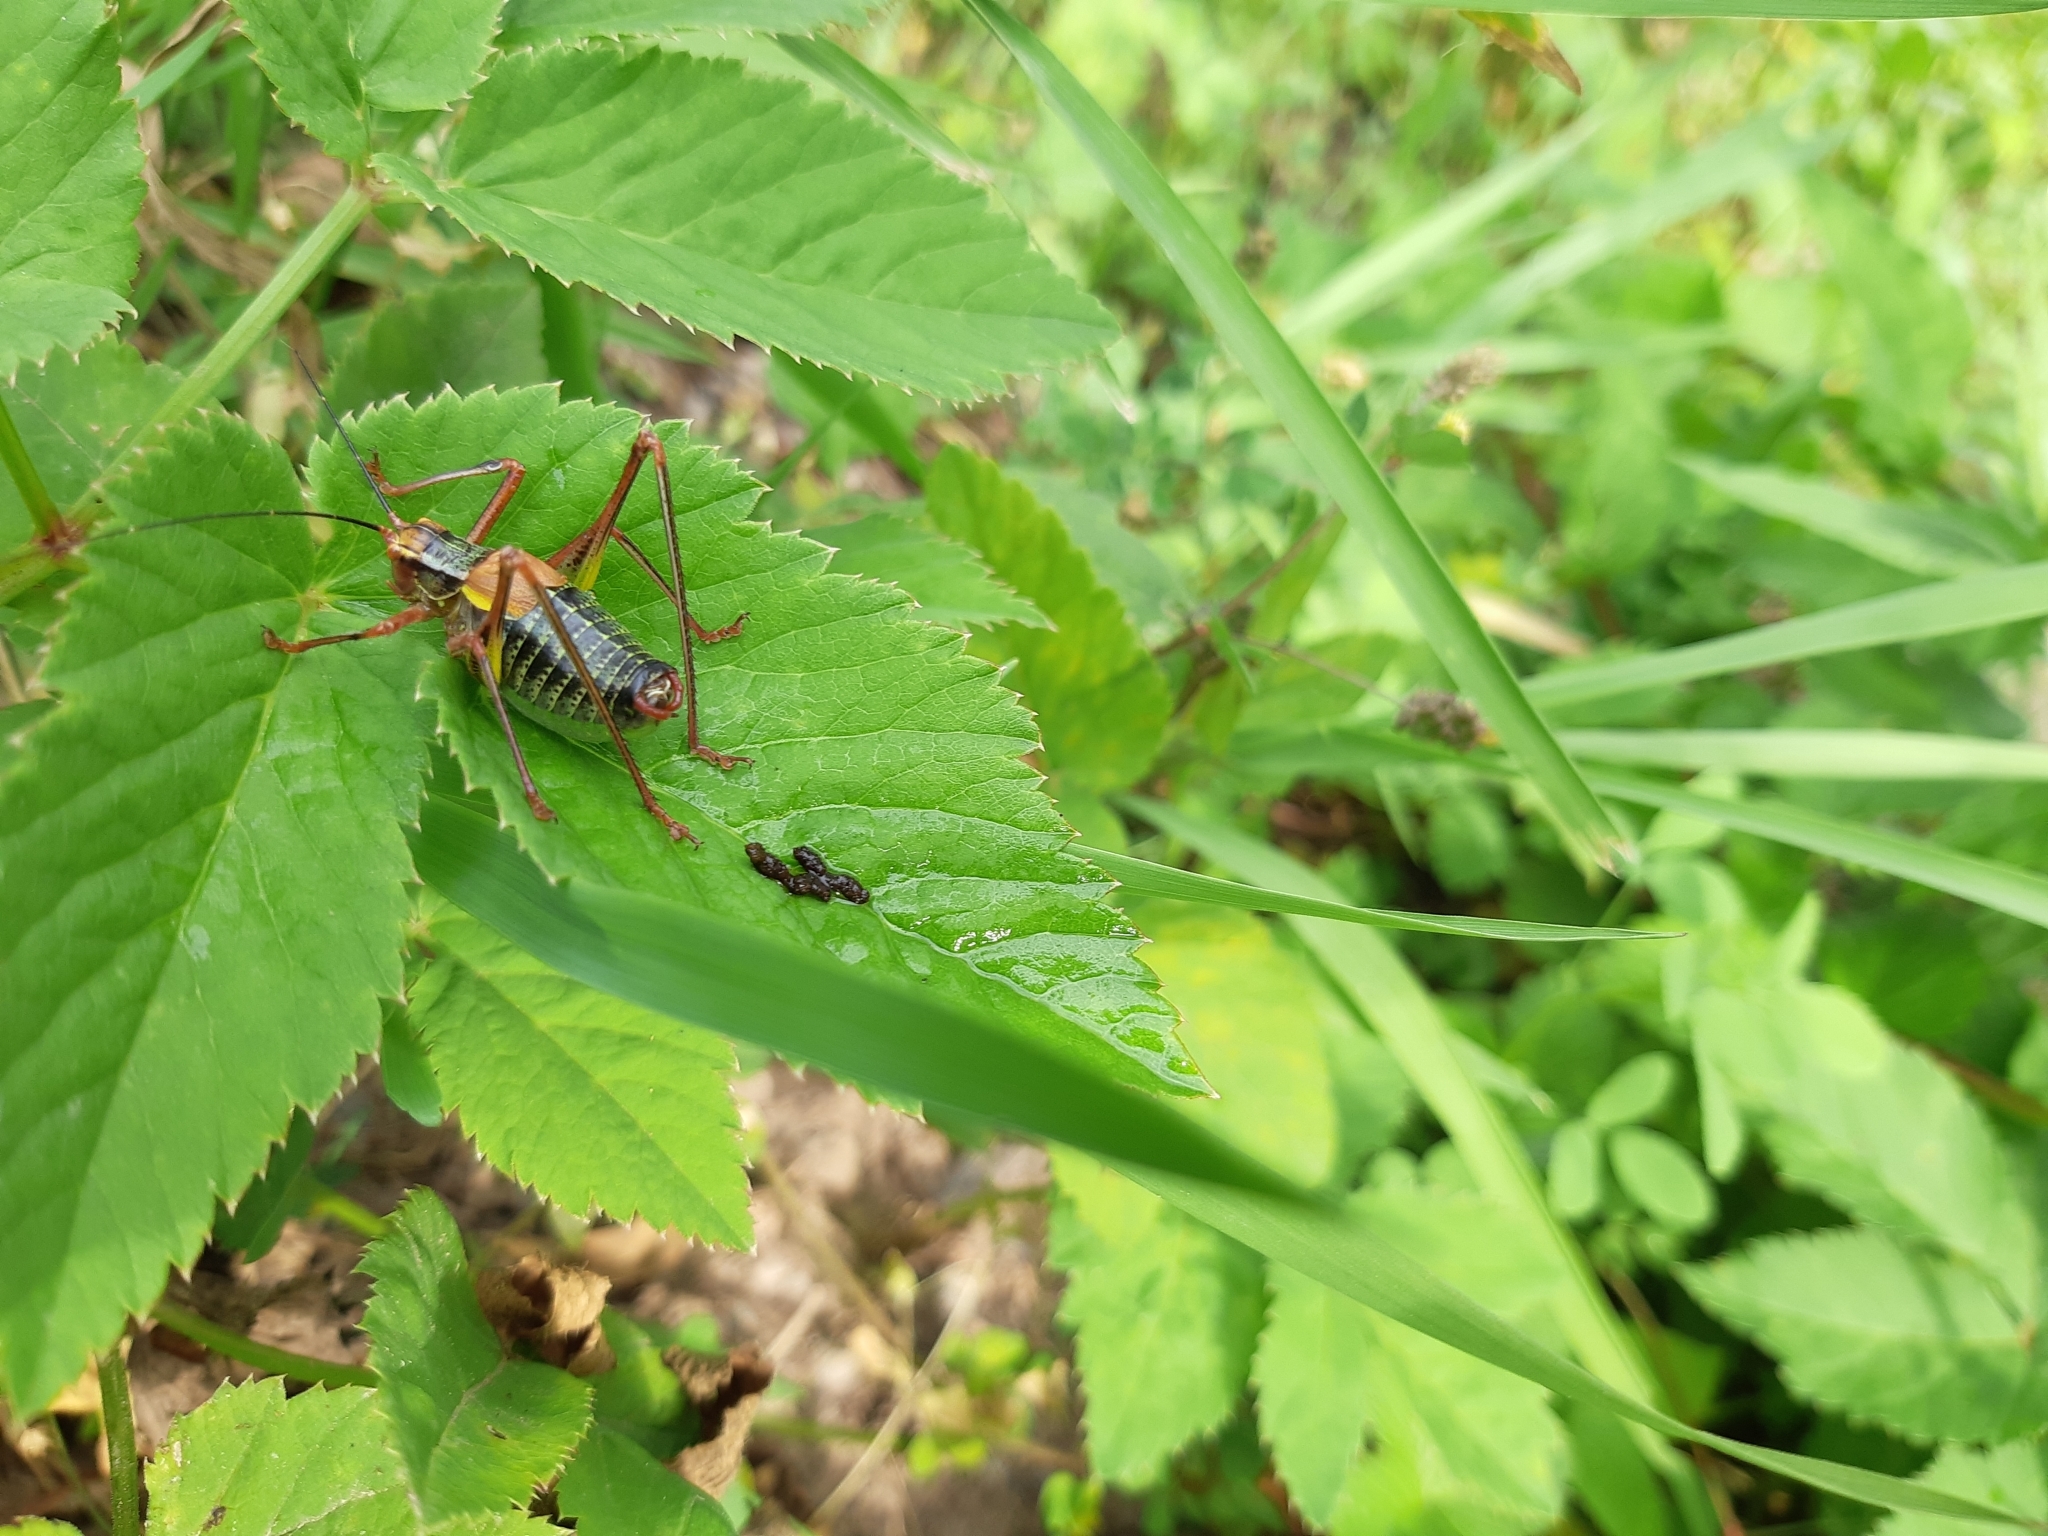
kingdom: Animalia
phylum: Arthropoda
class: Insecta
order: Orthoptera
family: Tettigoniidae
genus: Barbitistes
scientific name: Barbitistes constrictus
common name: Eastern saw-tailed bush cricket
